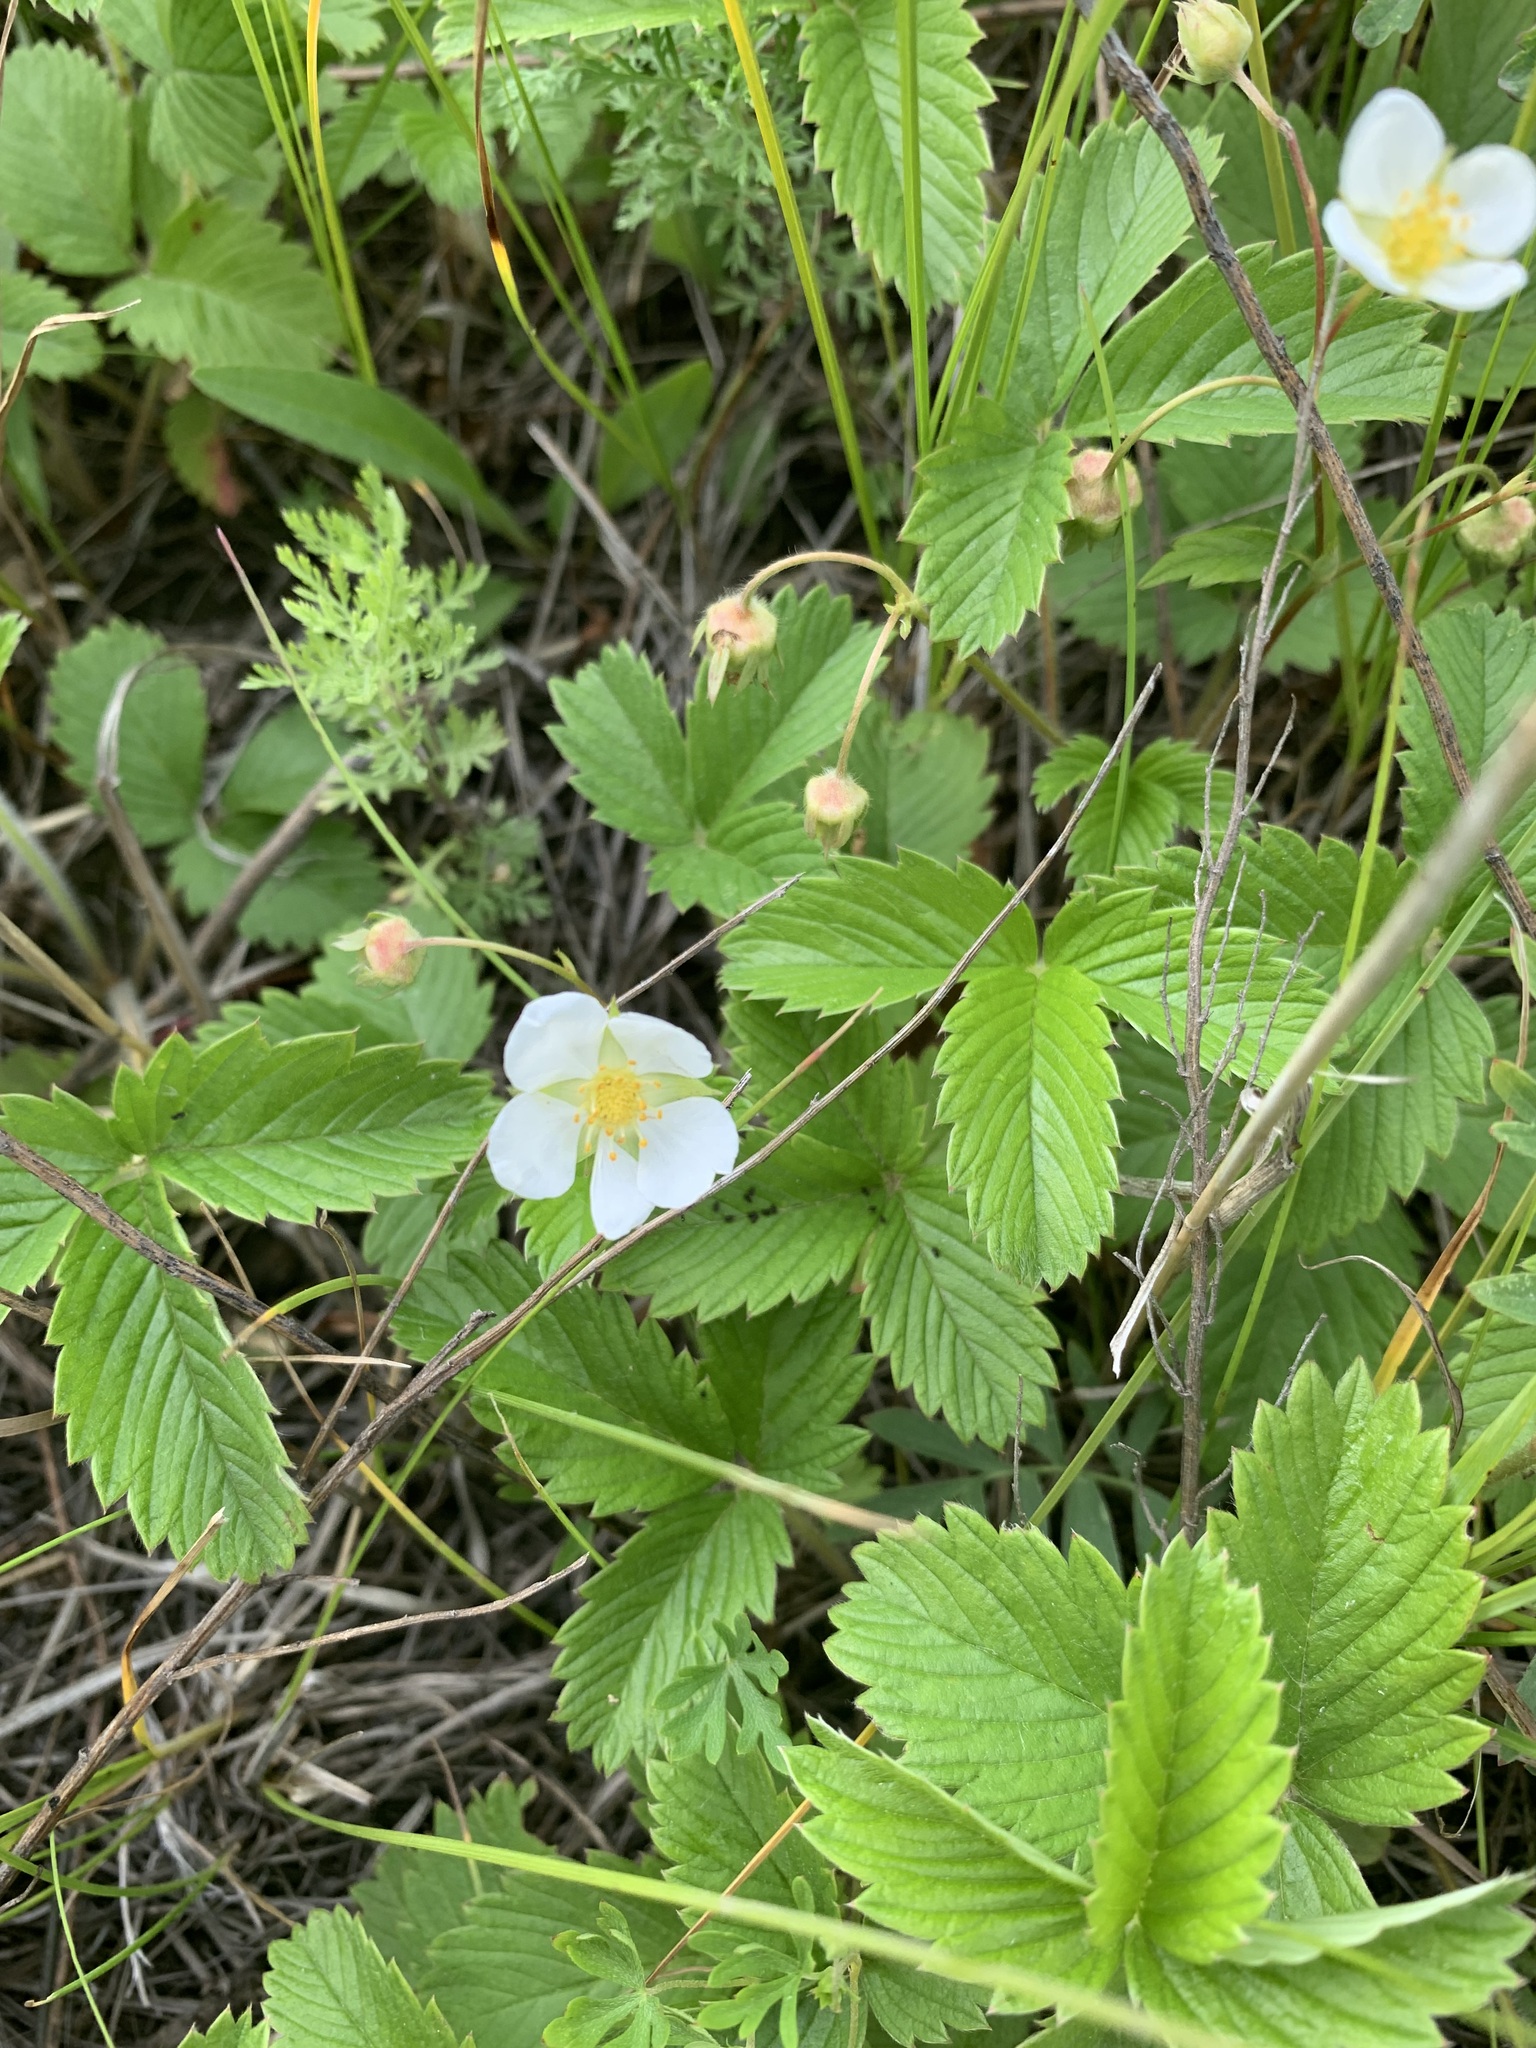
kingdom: Plantae
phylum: Tracheophyta
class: Magnoliopsida
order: Rosales
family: Rosaceae
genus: Fragaria
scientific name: Fragaria viridis
